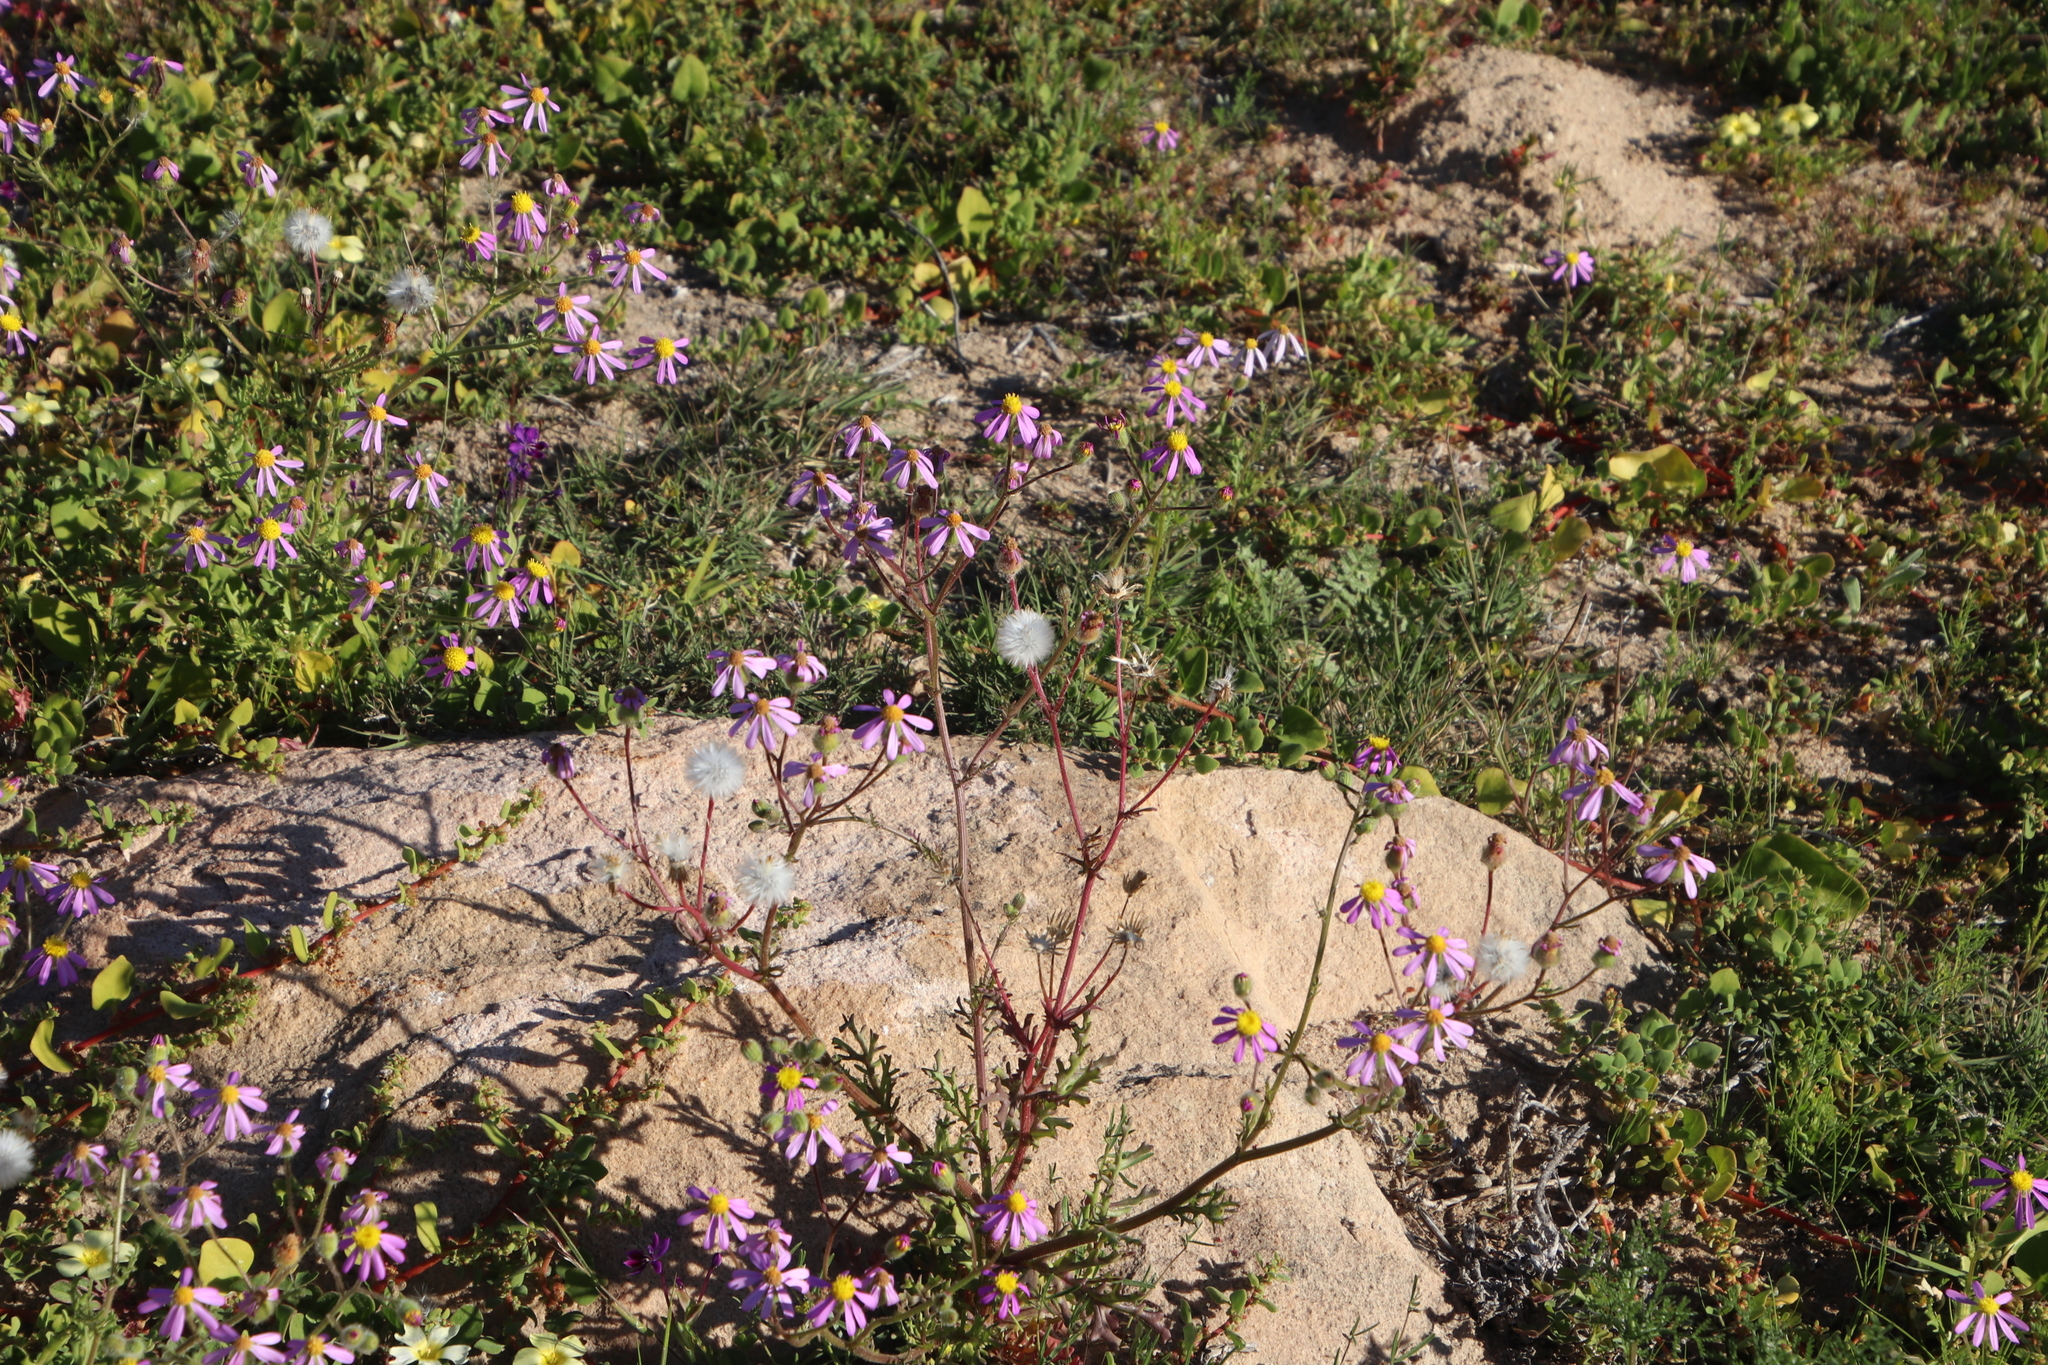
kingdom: Plantae
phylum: Tracheophyta
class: Magnoliopsida
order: Asterales
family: Asteraceae
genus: Senecio
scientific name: Senecio arenarius
